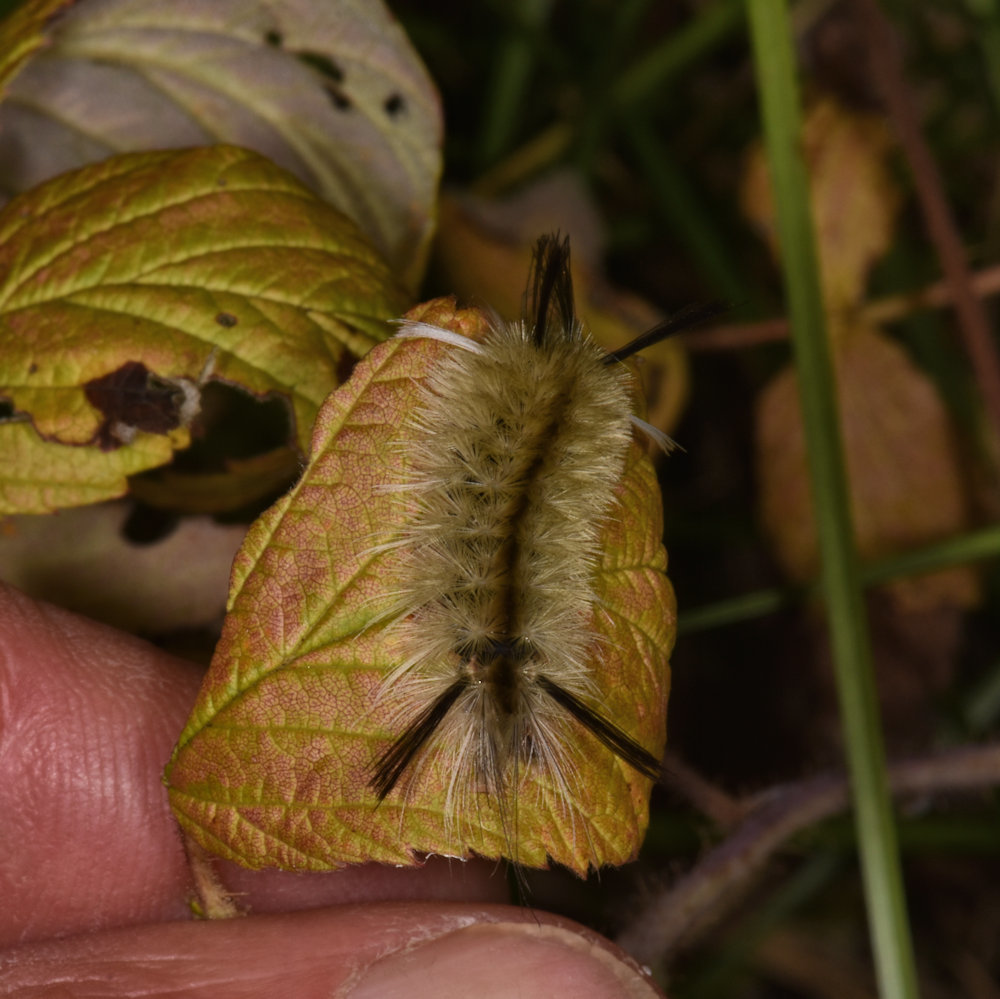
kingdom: Animalia
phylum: Arthropoda
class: Insecta
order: Lepidoptera
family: Erebidae
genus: Halysidota
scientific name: Halysidota tessellaris
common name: Banded tussock moth
